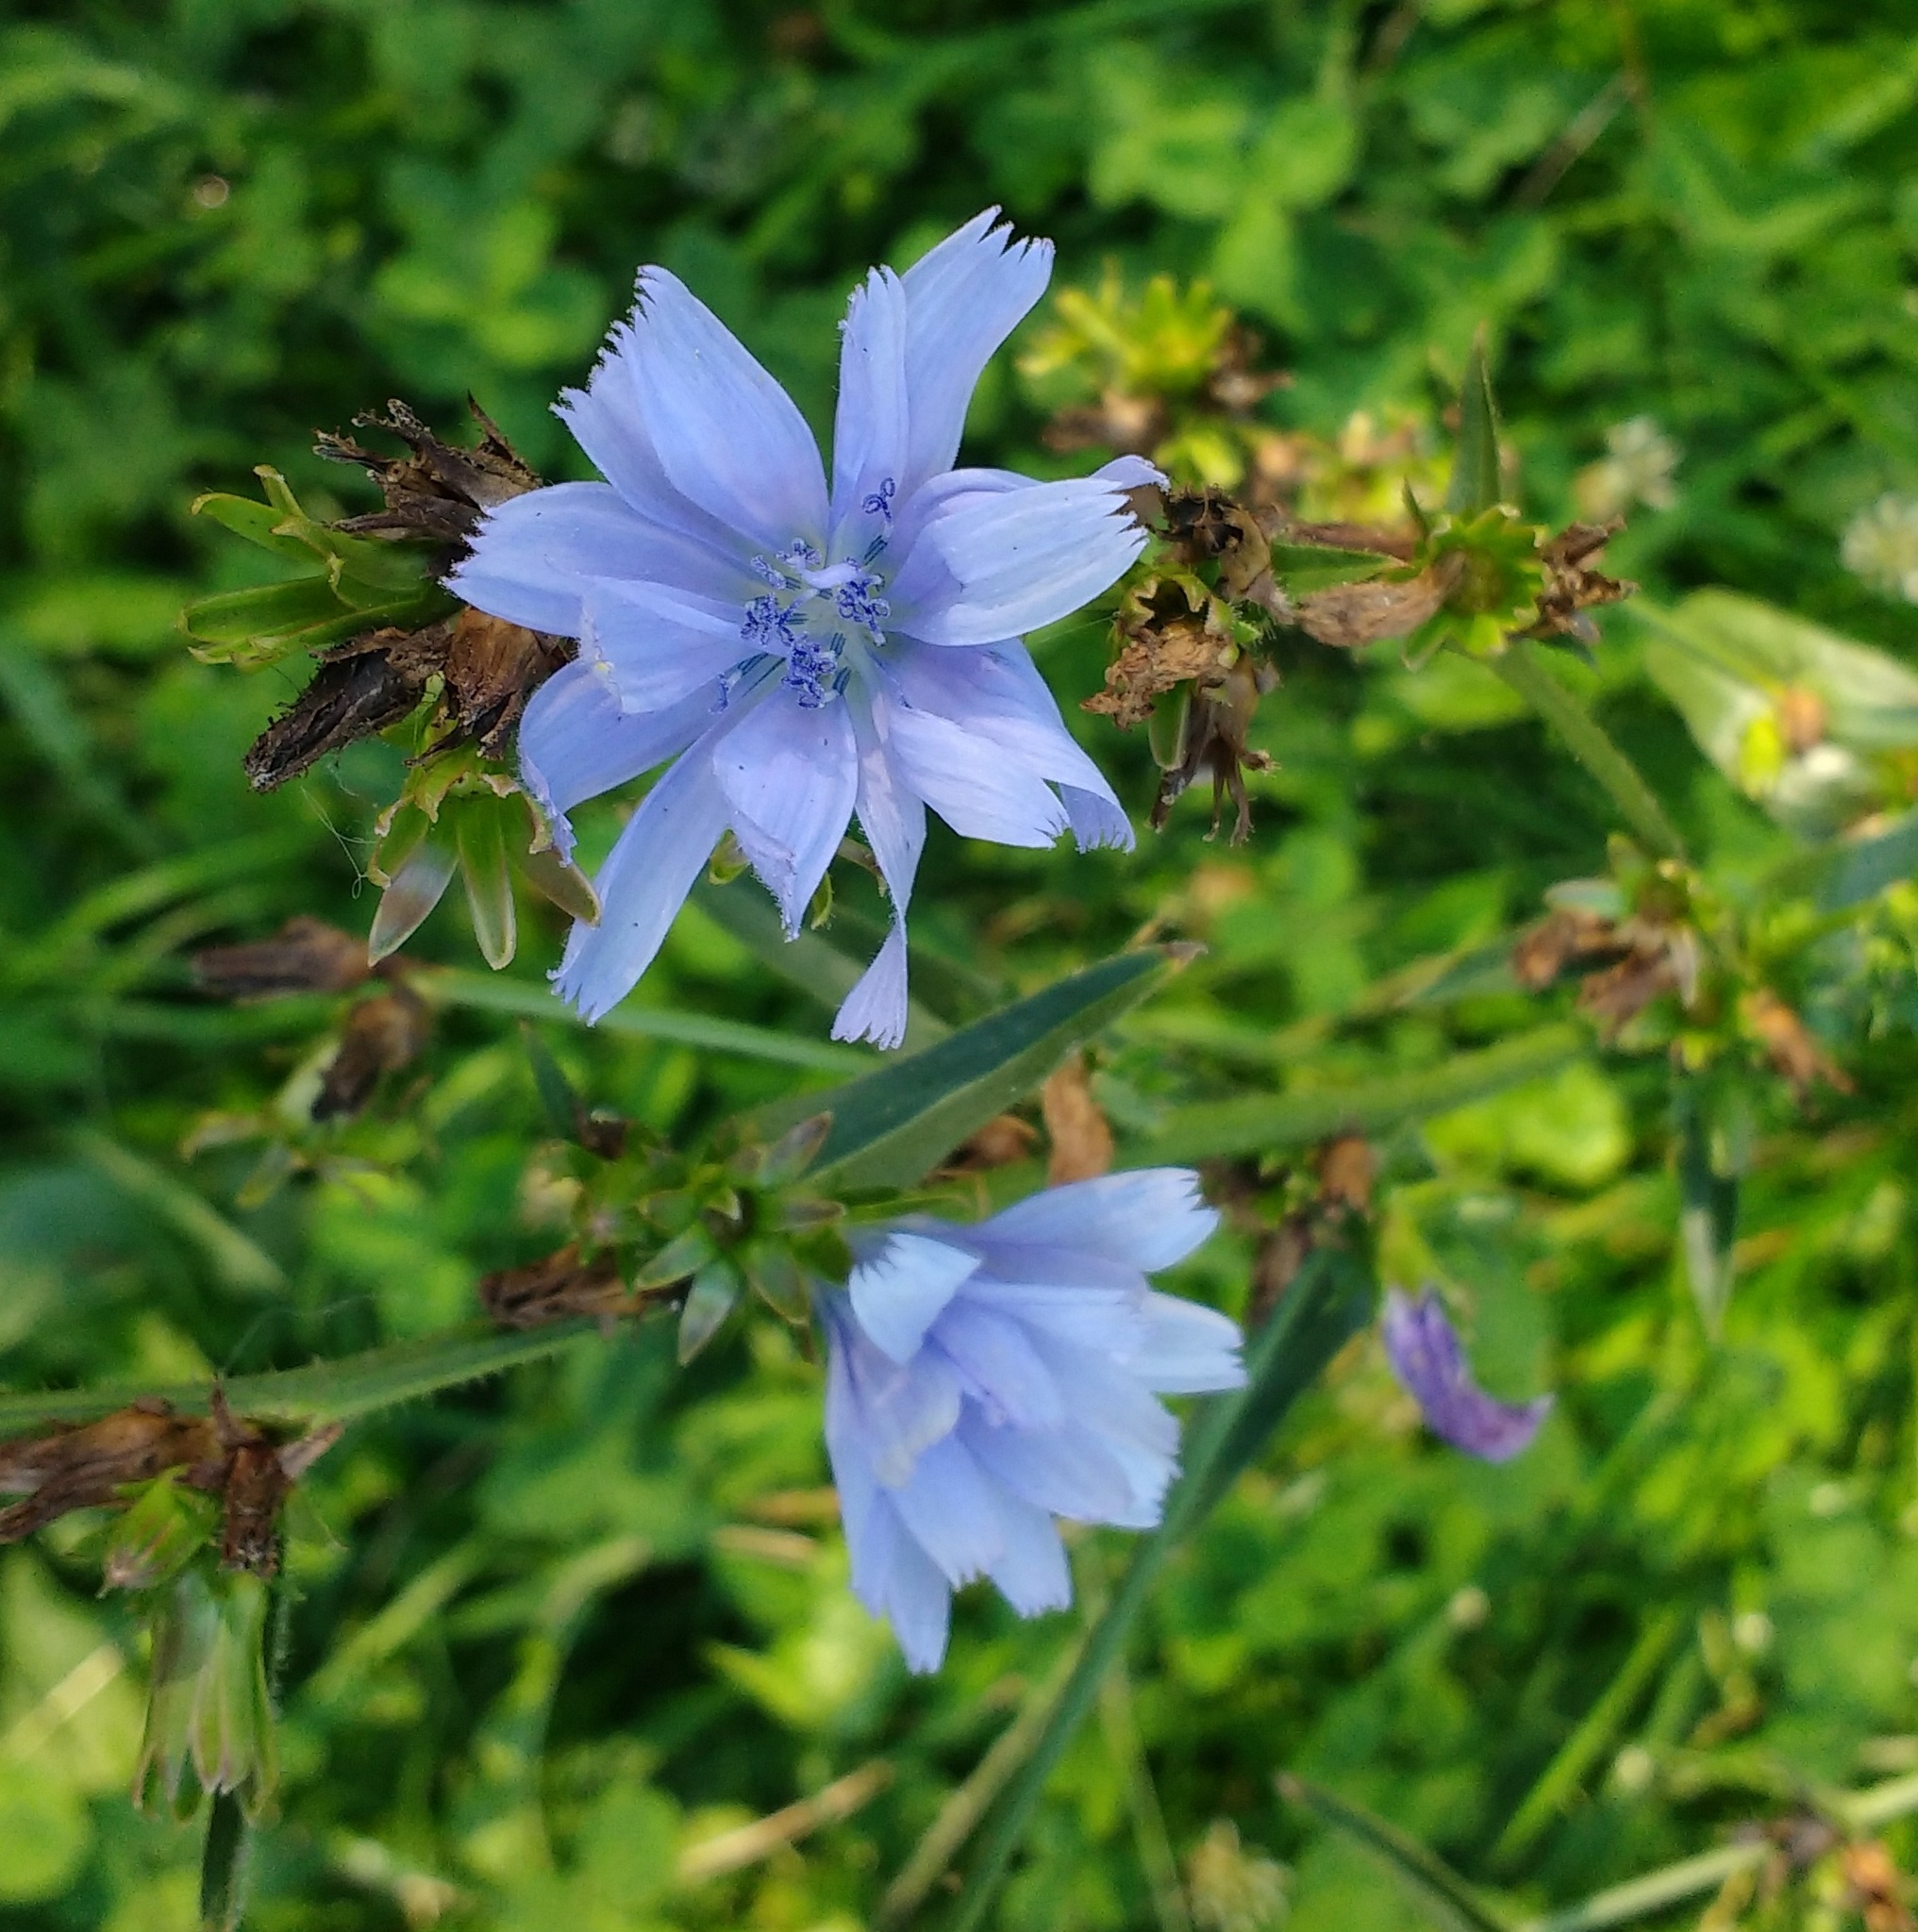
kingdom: Plantae
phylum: Tracheophyta
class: Magnoliopsida
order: Asterales
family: Asteraceae
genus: Cichorium
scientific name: Cichorium intybus
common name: Chicory
